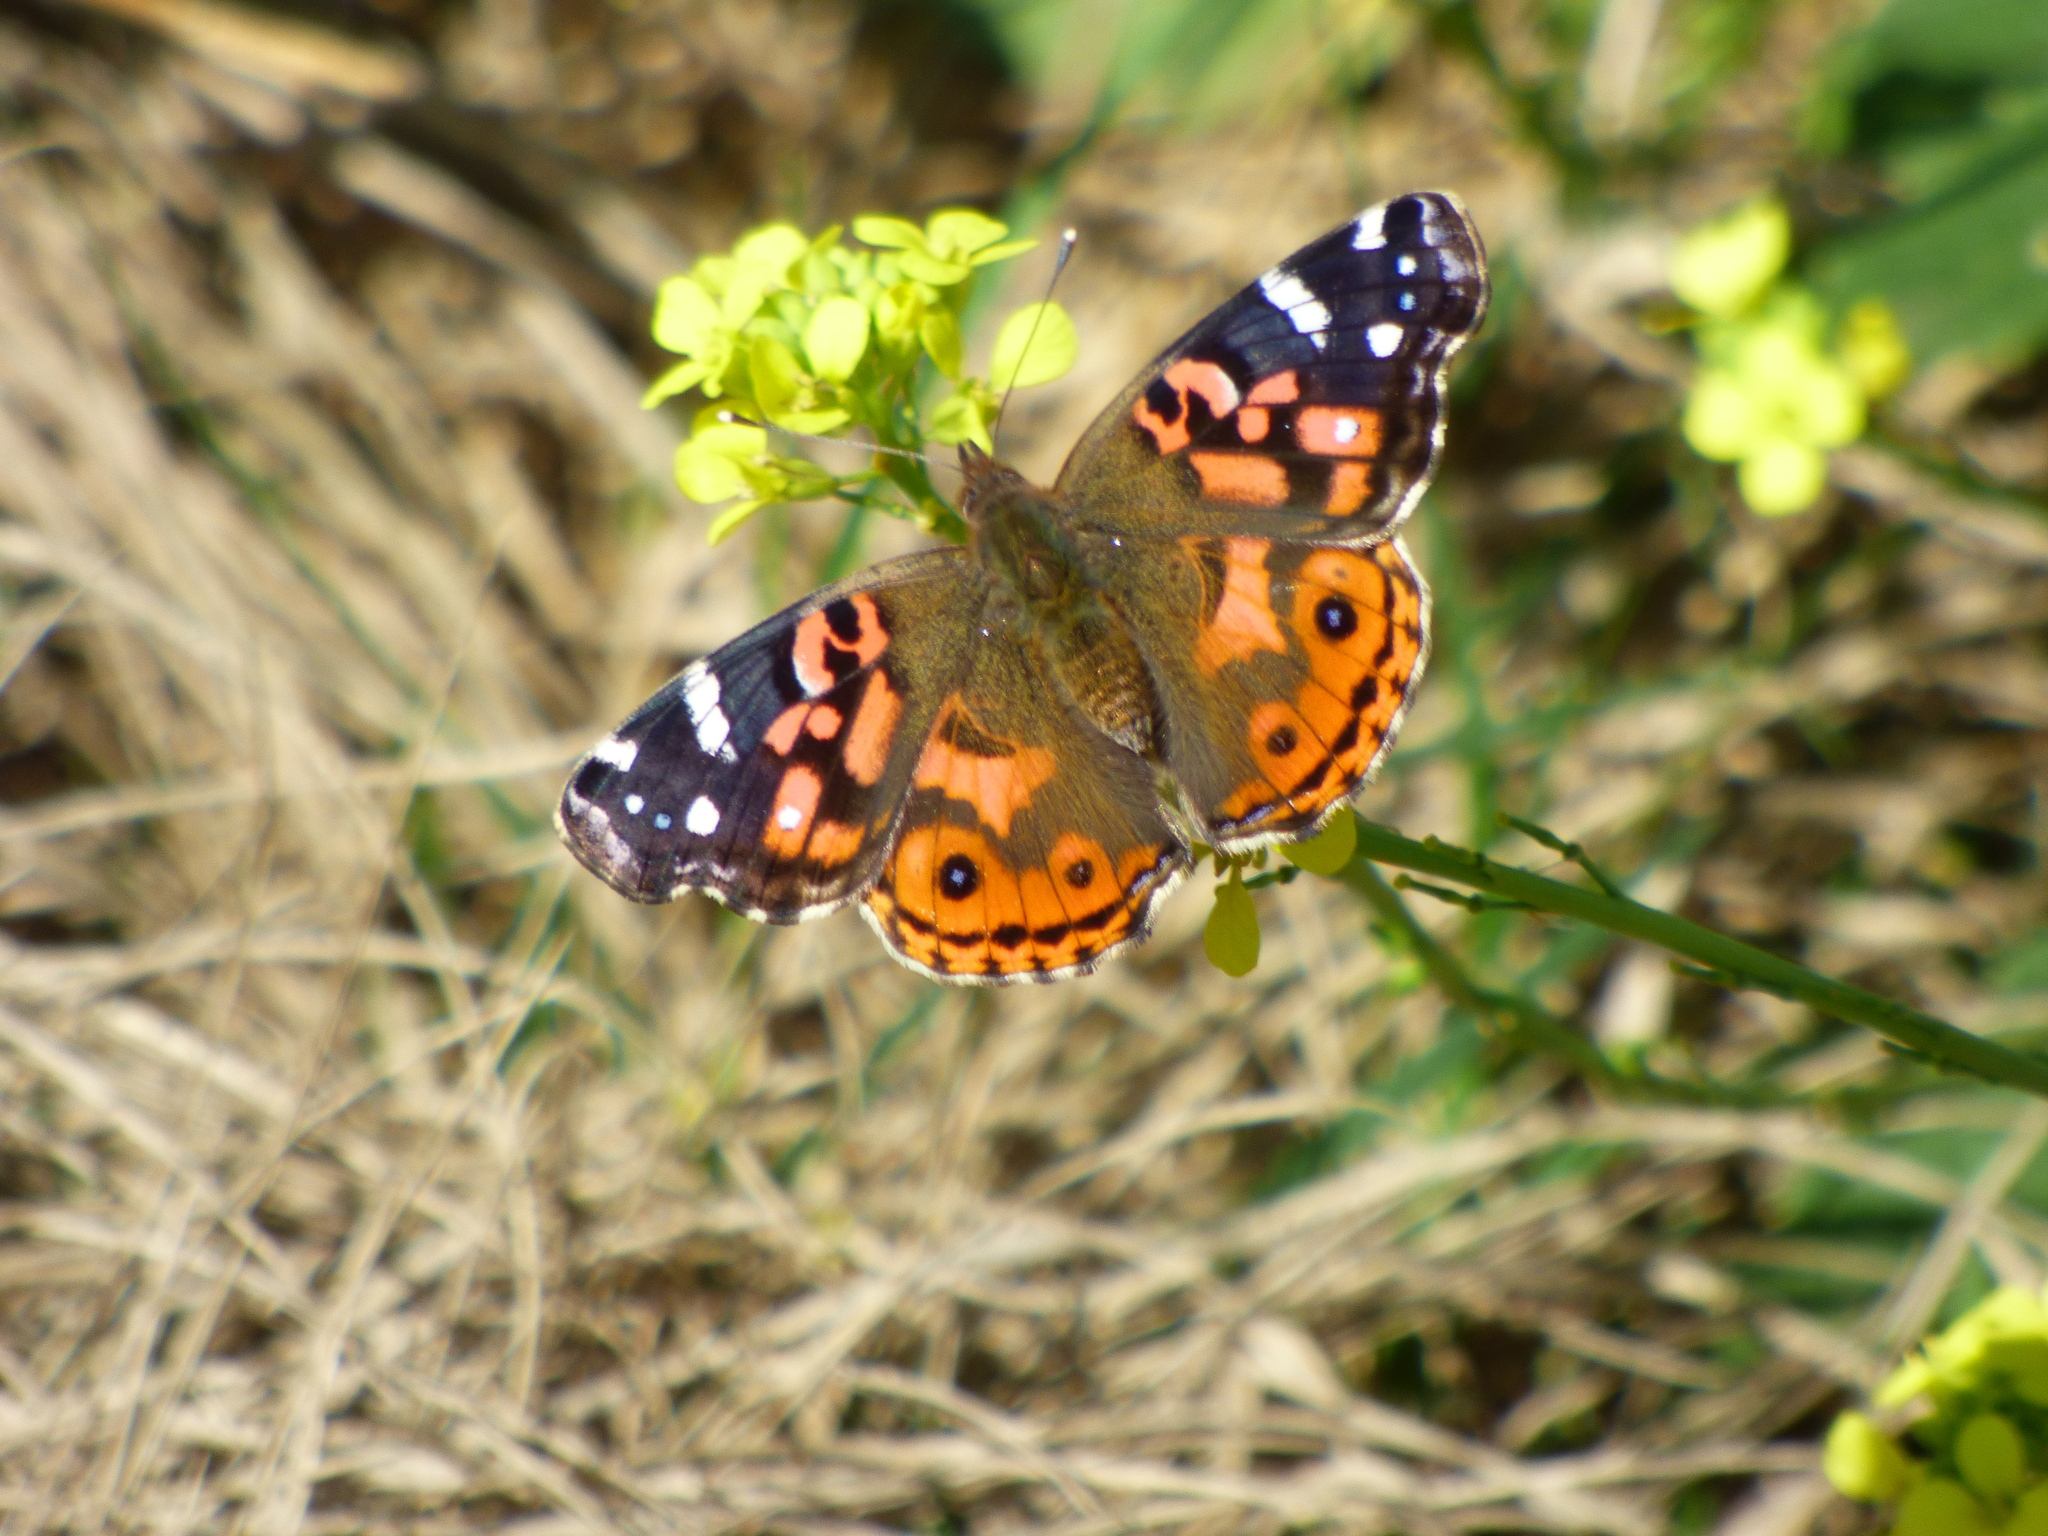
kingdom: Animalia
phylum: Arthropoda
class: Insecta
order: Lepidoptera
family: Nymphalidae
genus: Vanessa
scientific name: Vanessa braziliensis
